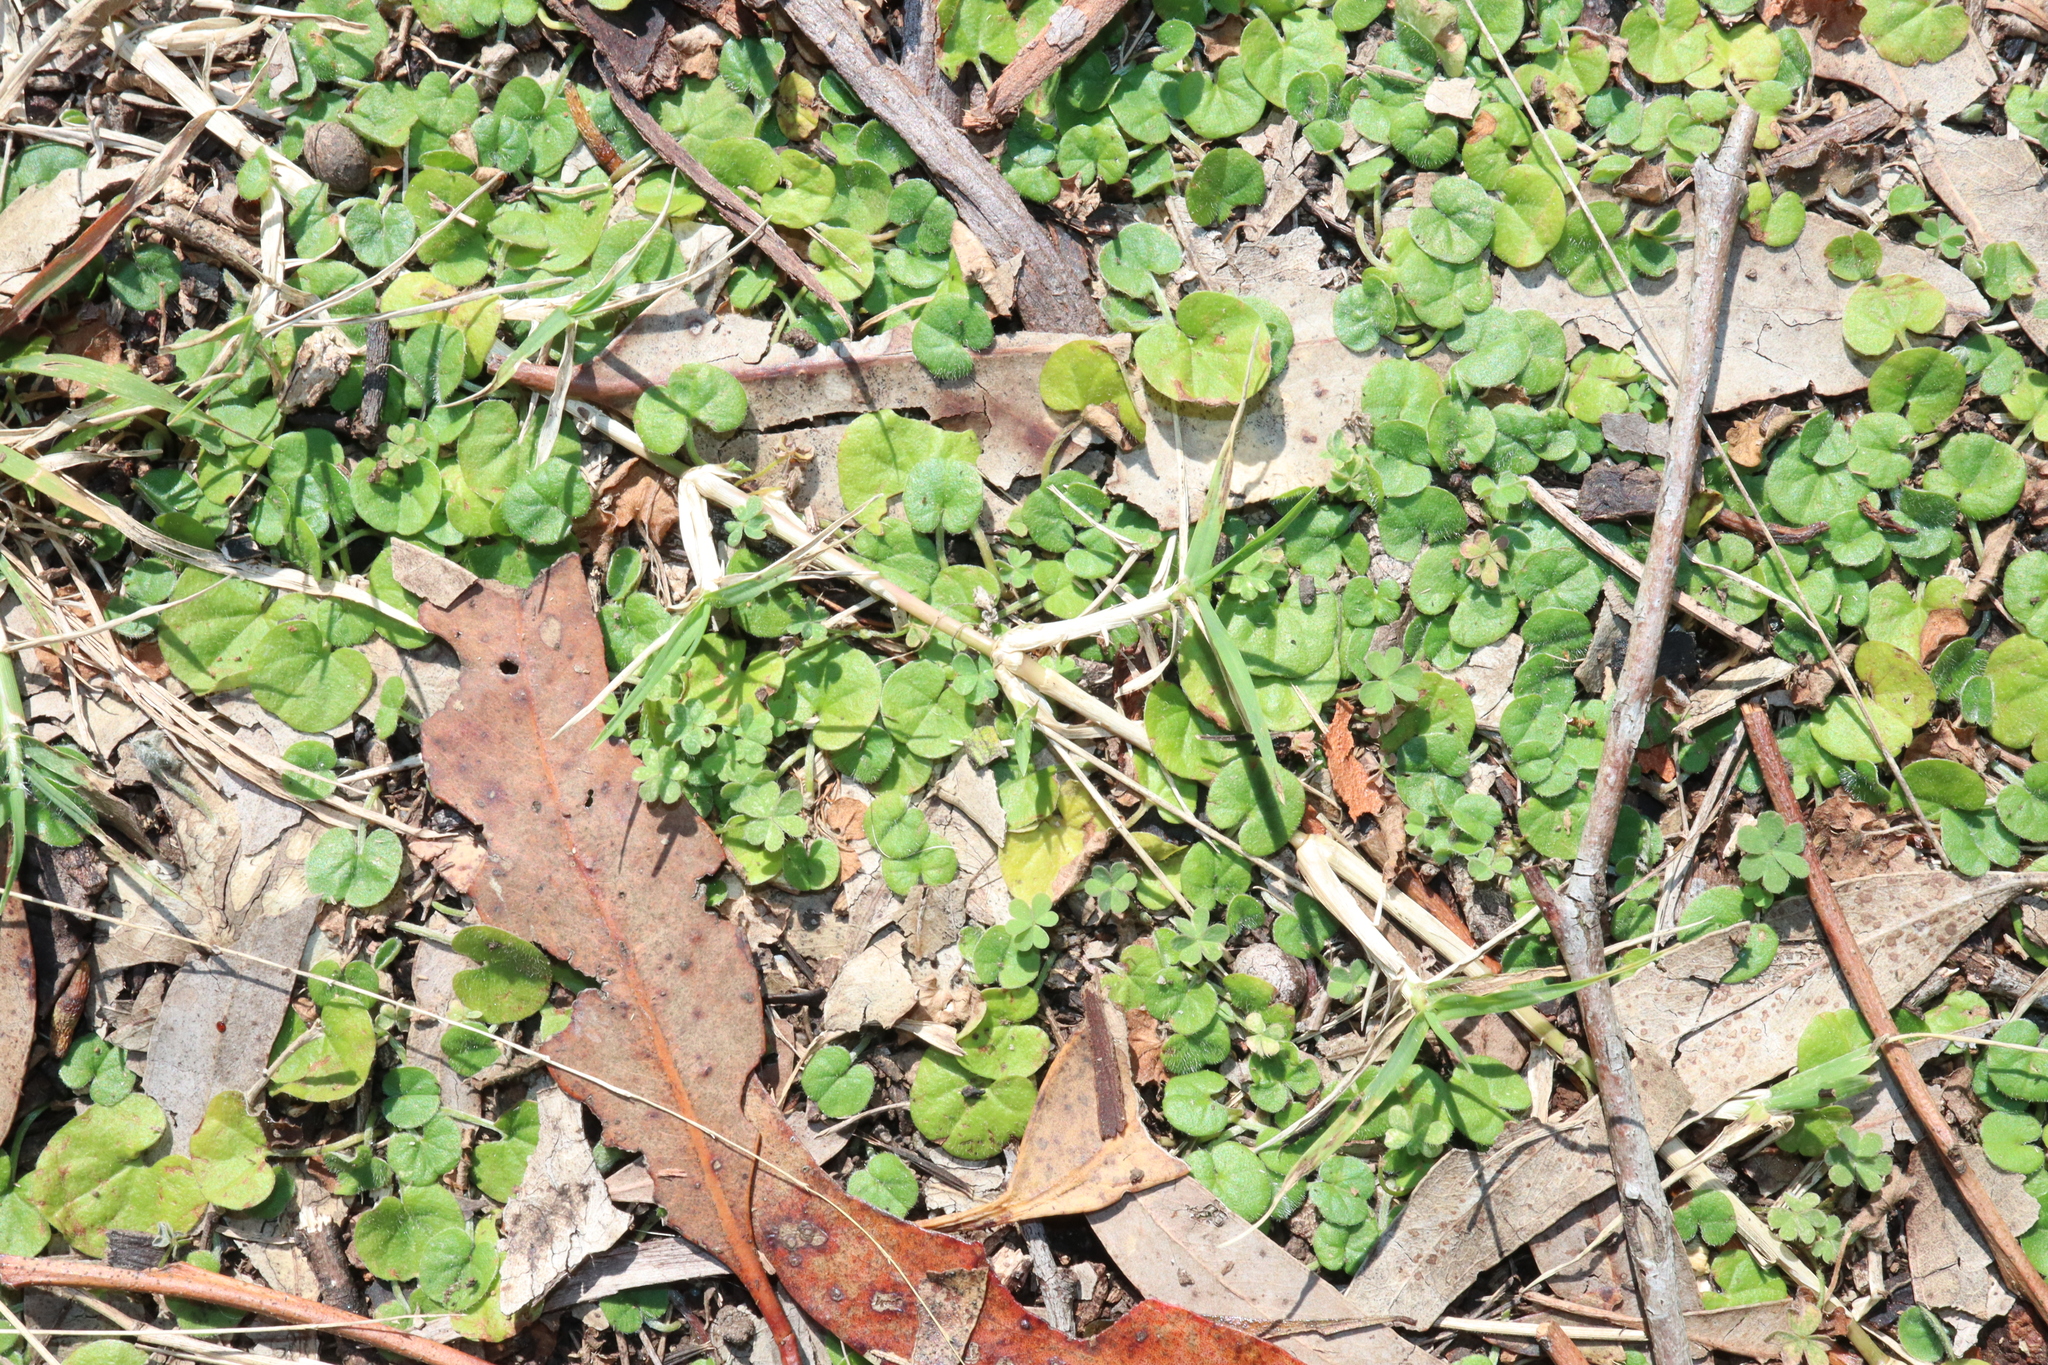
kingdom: Plantae
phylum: Tracheophyta
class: Magnoliopsida
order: Solanales
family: Convolvulaceae
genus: Dichondra
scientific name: Dichondra repens
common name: Kidneyweed
